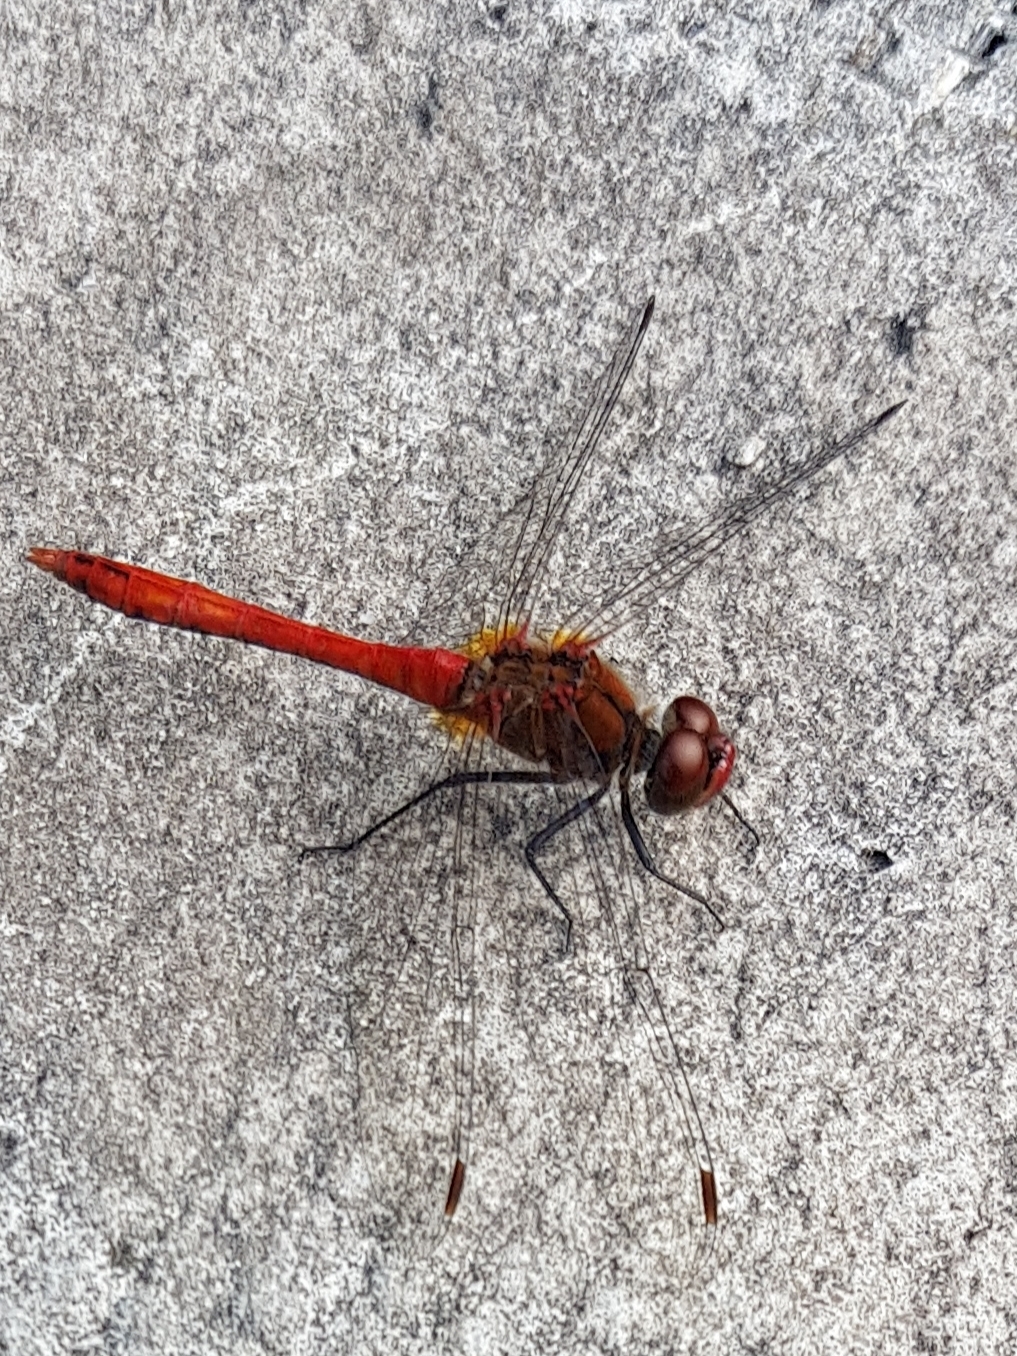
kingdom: Animalia
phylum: Arthropoda
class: Insecta
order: Odonata
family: Libellulidae
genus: Sympetrum
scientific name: Sympetrum sanguineum
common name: Ruddy darter
